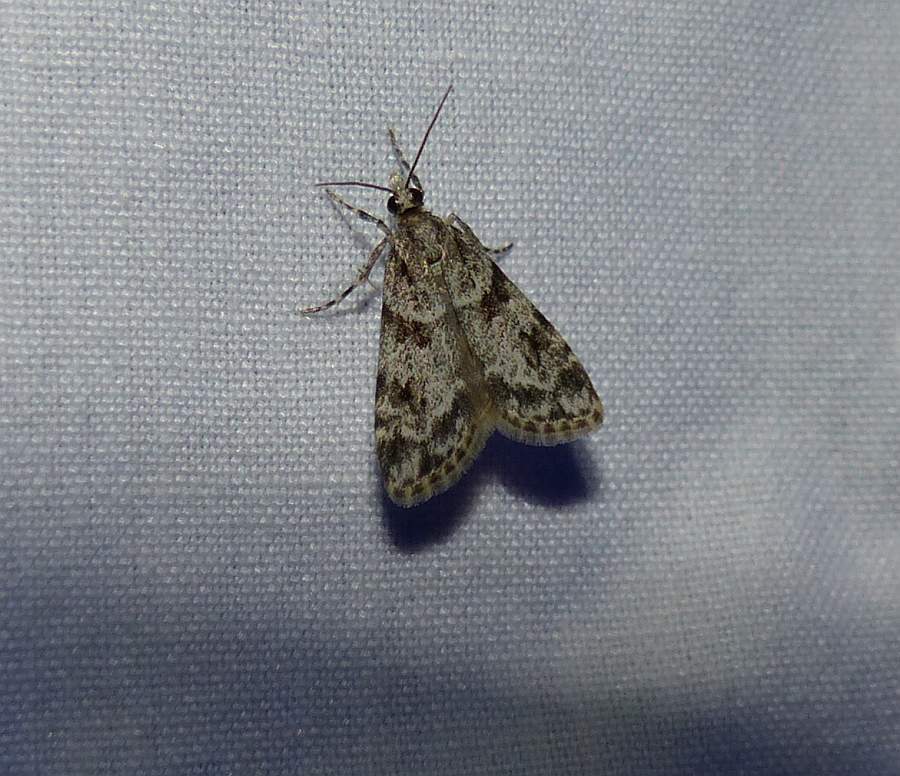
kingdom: Animalia
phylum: Arthropoda
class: Insecta
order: Lepidoptera
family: Crambidae
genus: Scoparia
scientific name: Scoparia biplagialis
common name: Double-striped scoparia moth
